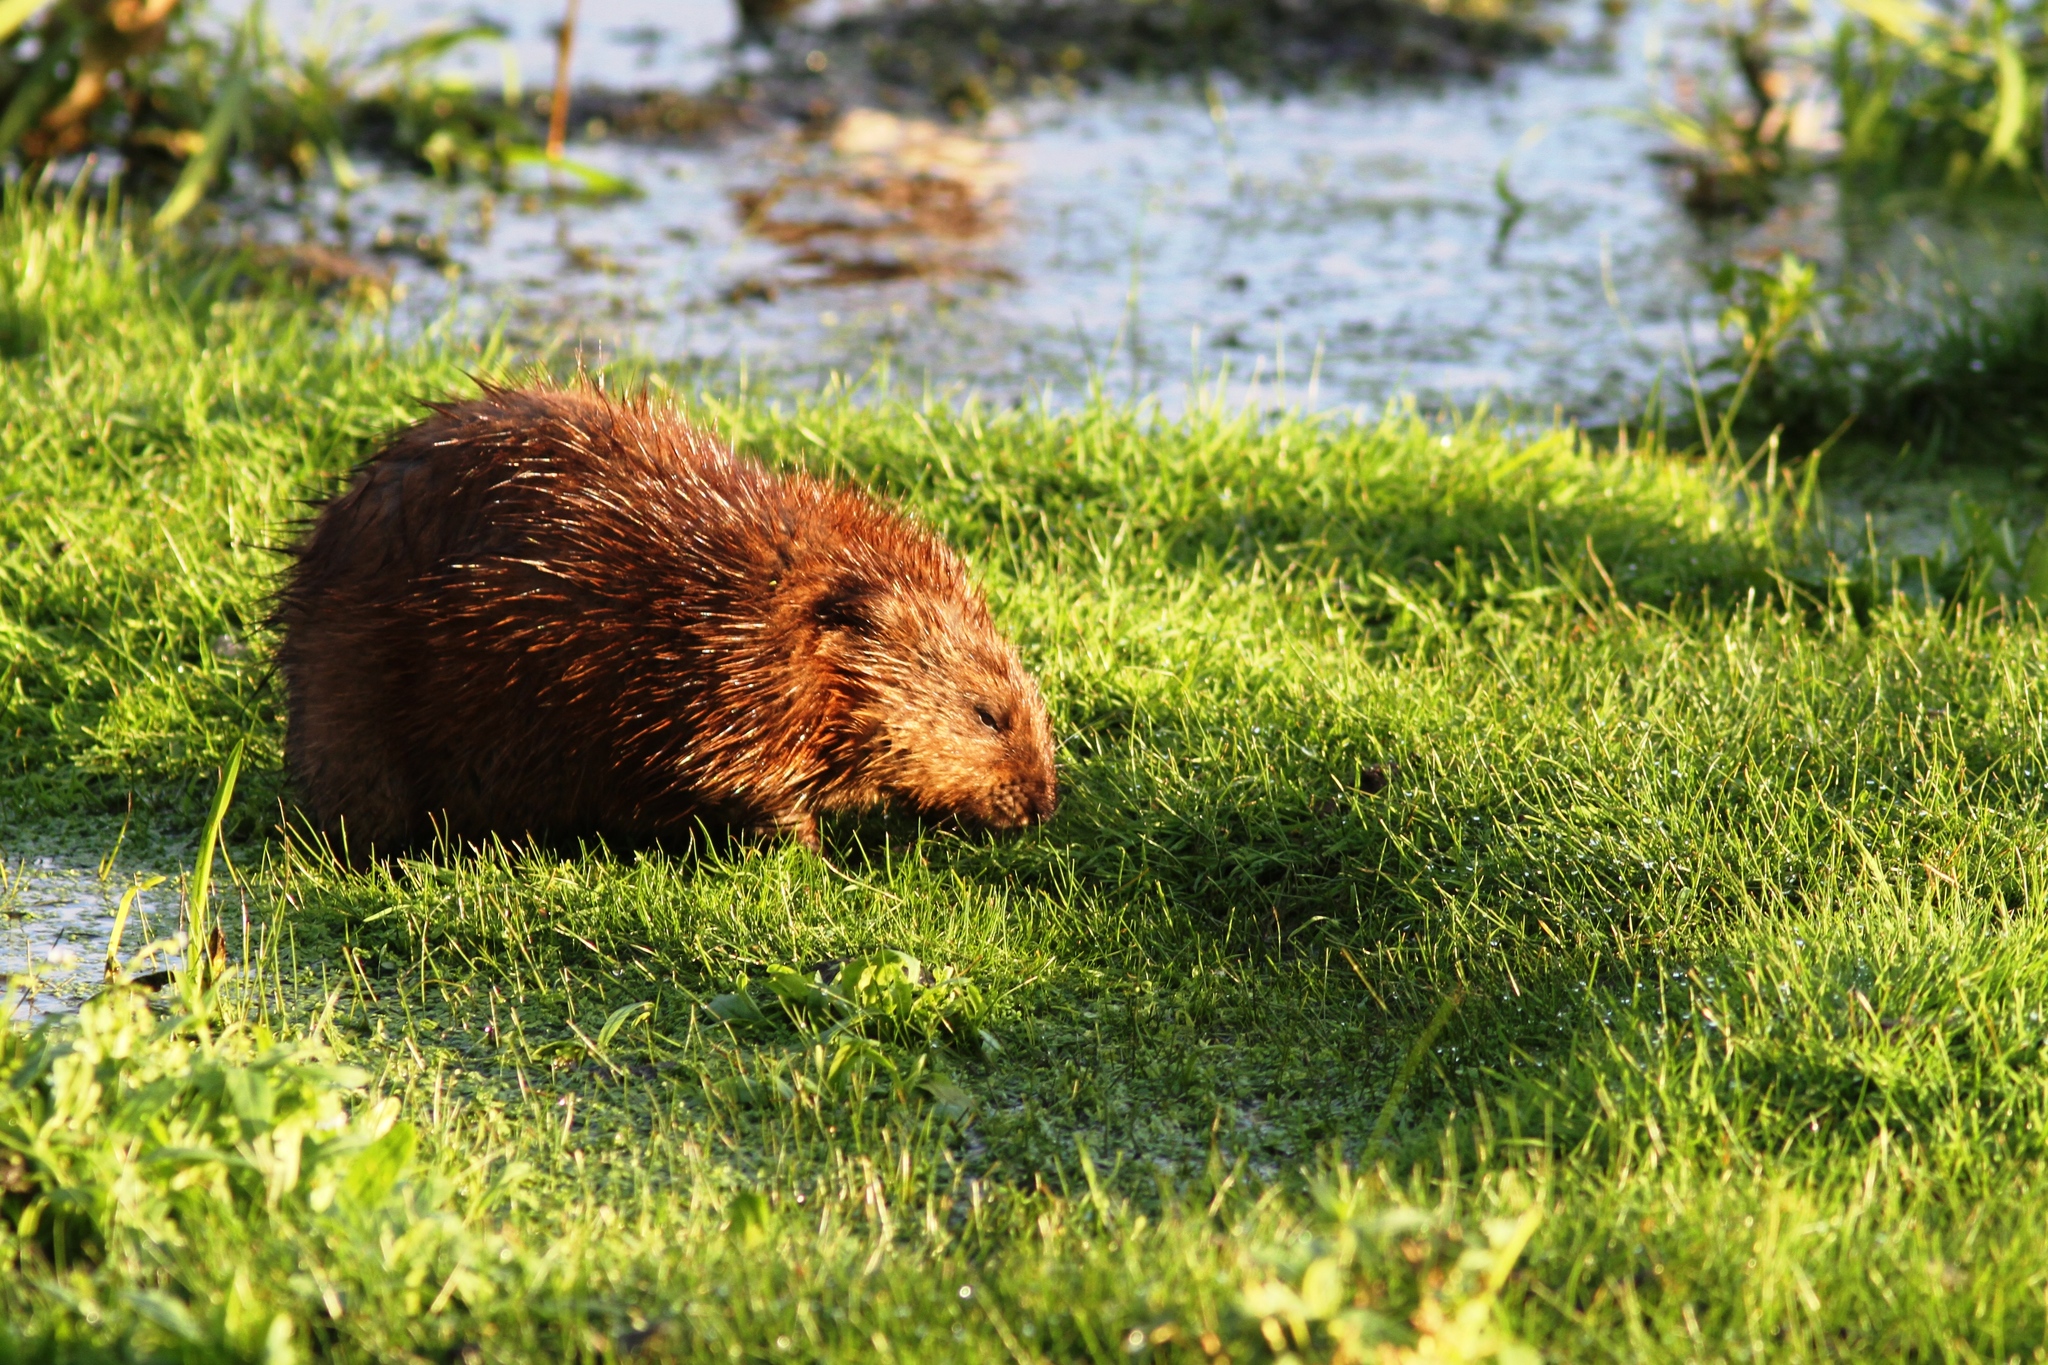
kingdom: Animalia
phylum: Chordata
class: Mammalia
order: Rodentia
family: Cricetidae
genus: Ondatra
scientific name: Ondatra zibethicus
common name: Muskrat
